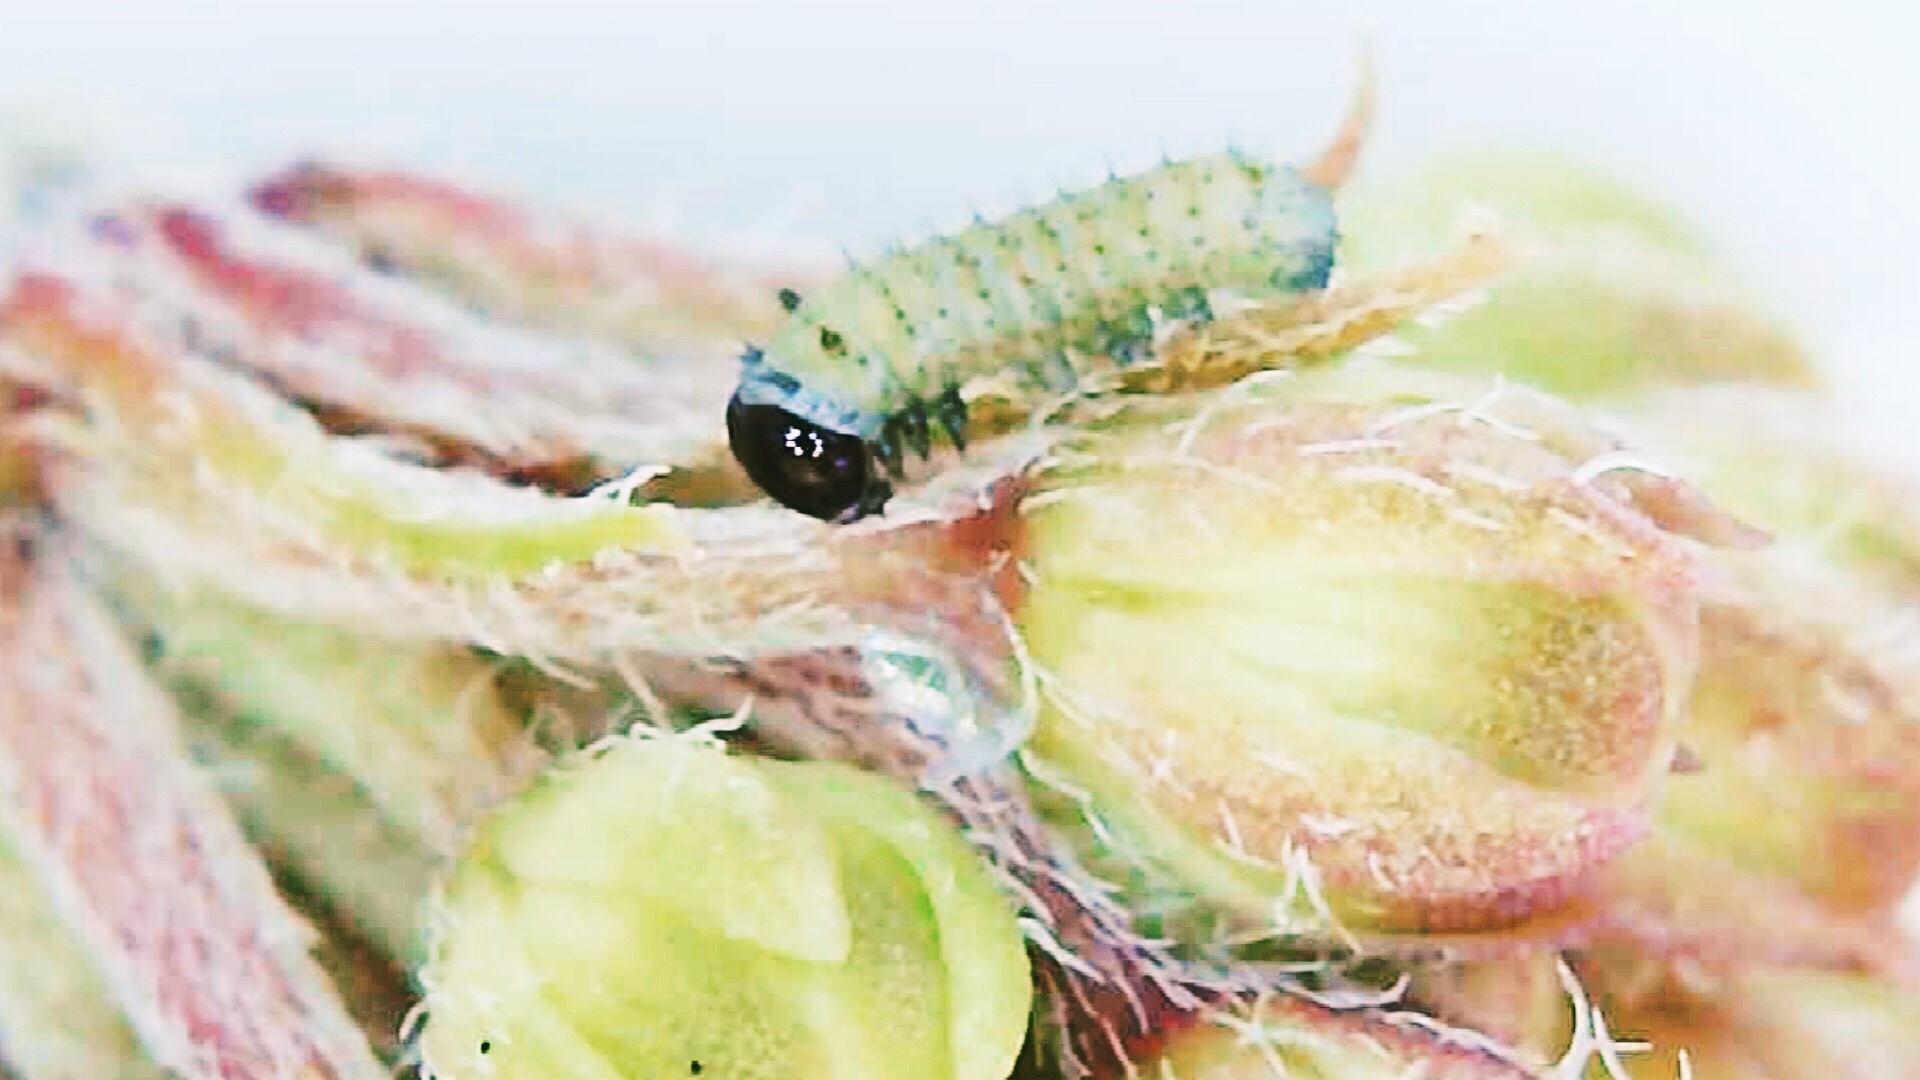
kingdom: Animalia
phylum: Arthropoda
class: Insecta
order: Lepidoptera
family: Nymphalidae
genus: Danaus
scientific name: Danaus plexippus
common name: Monarch
